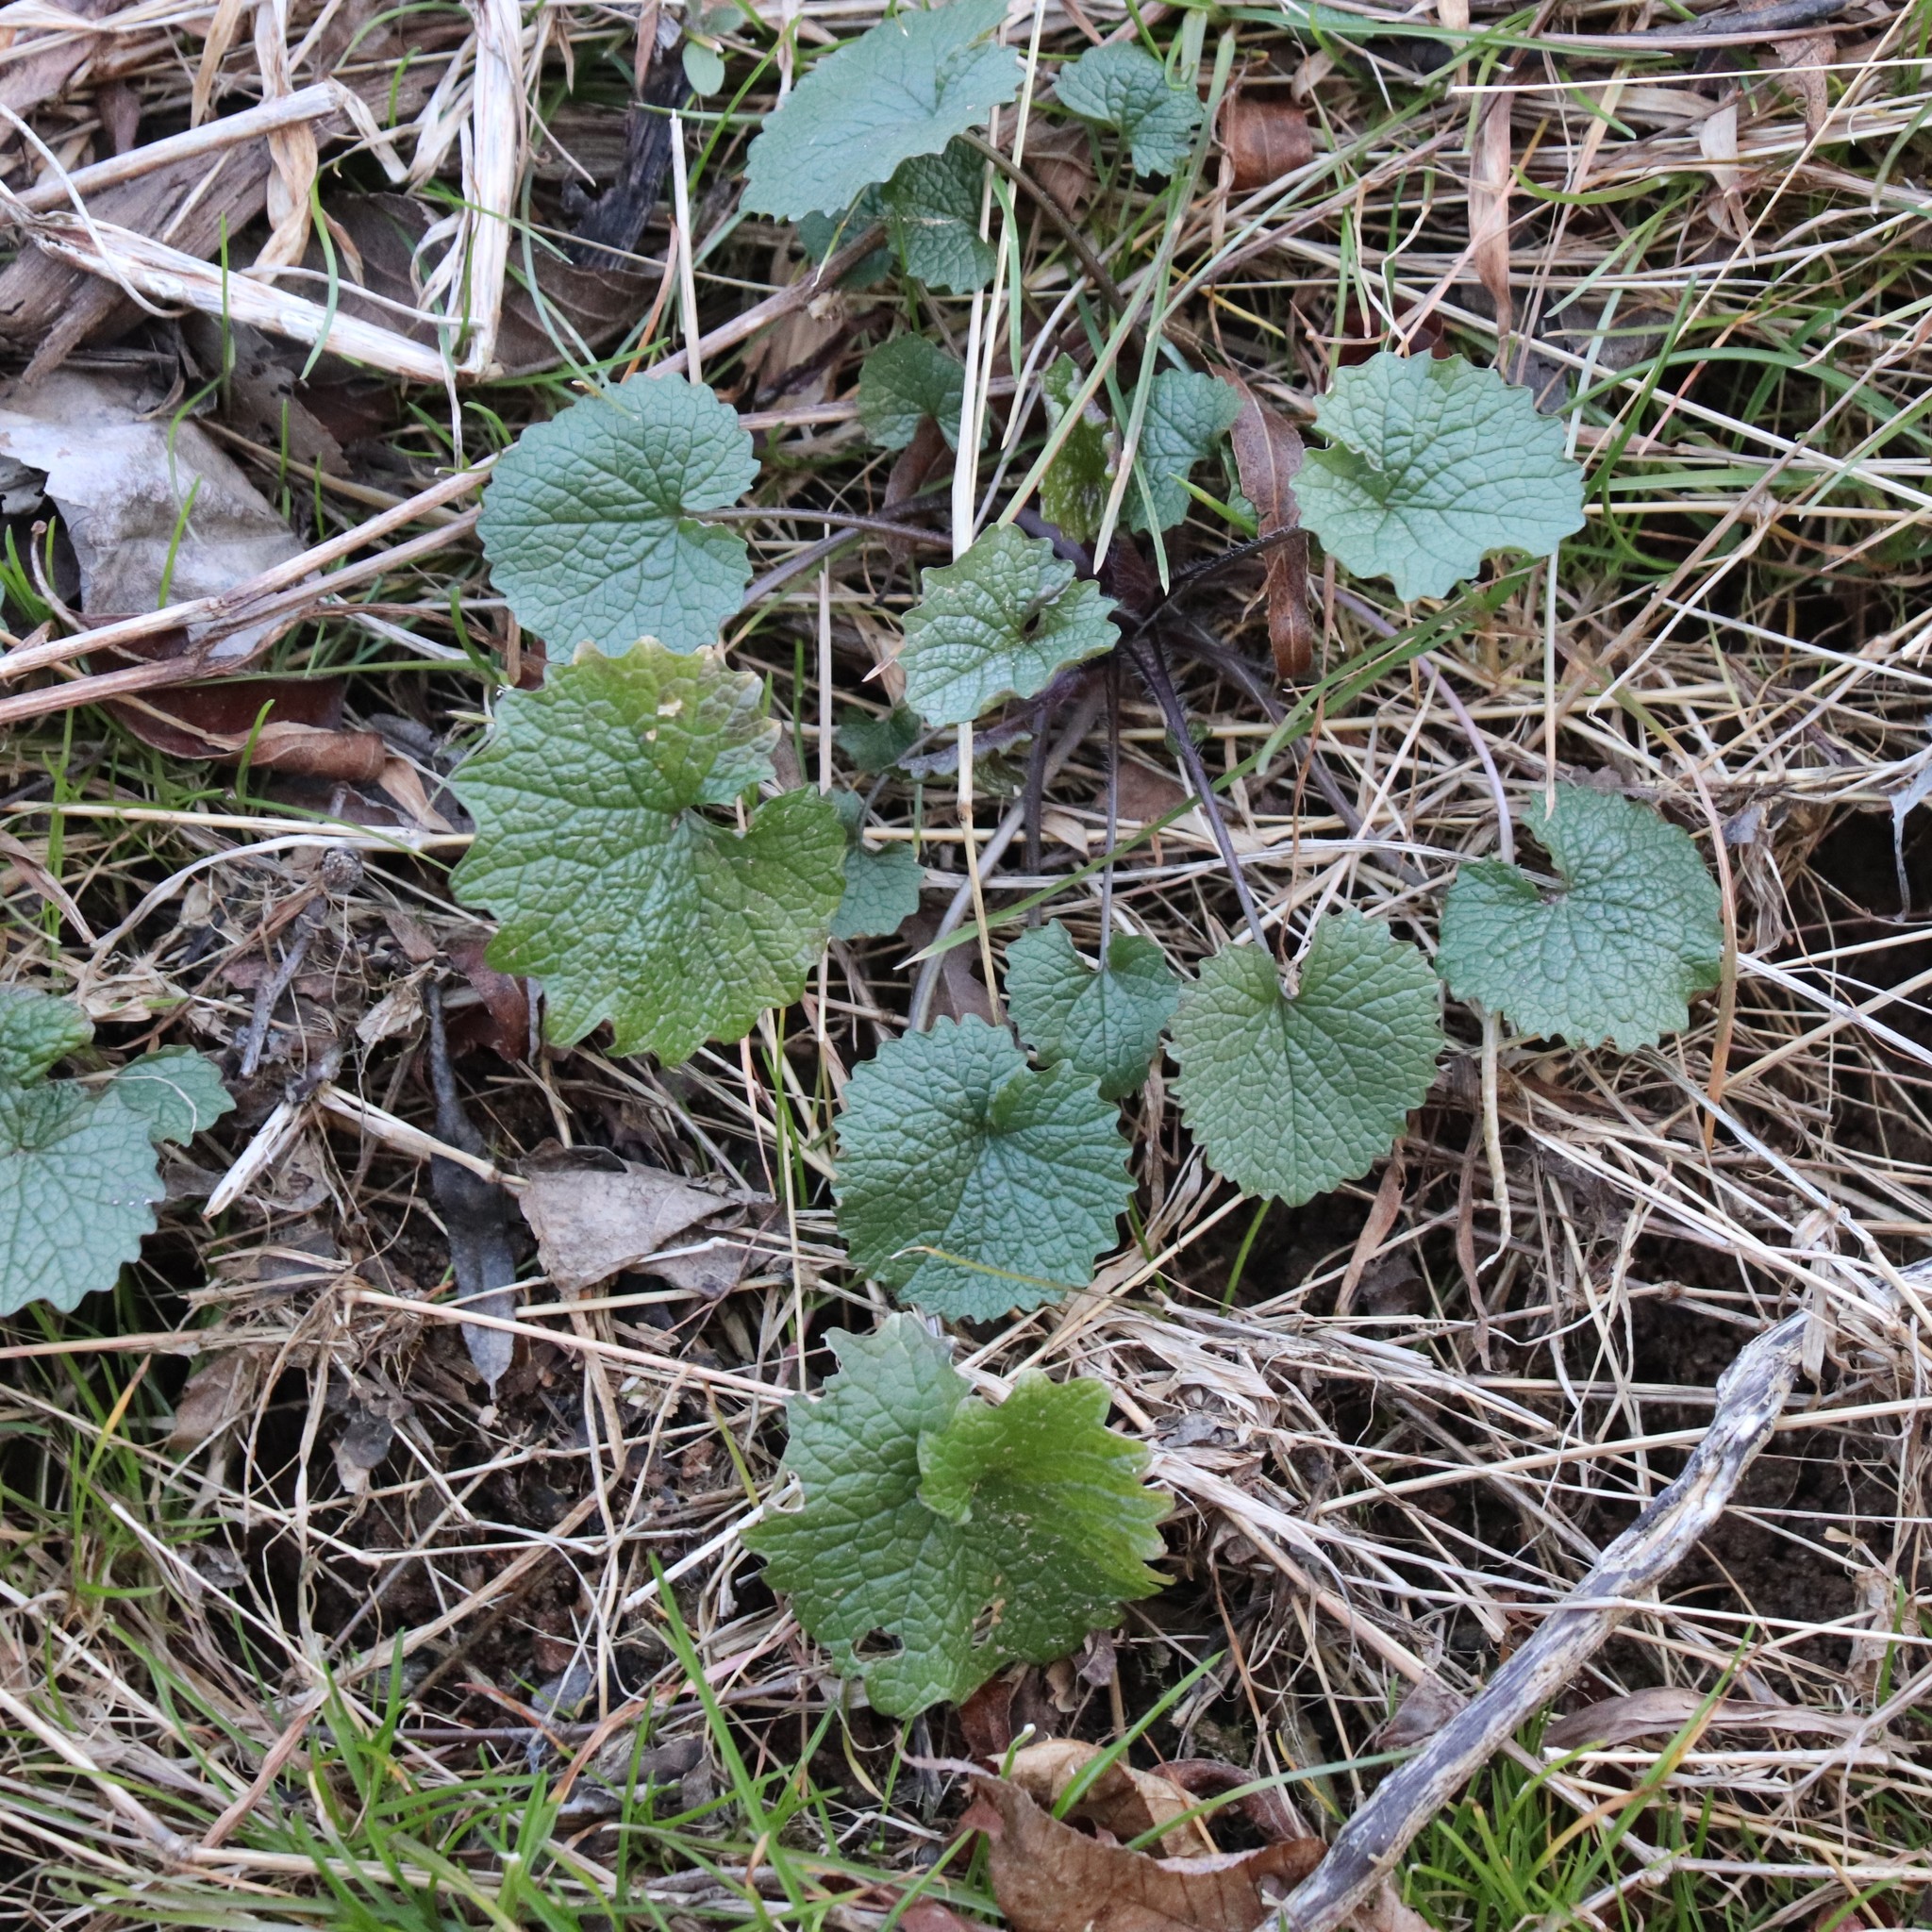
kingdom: Plantae
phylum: Tracheophyta
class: Magnoliopsida
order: Brassicales
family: Brassicaceae
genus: Alliaria
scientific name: Alliaria petiolata
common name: Garlic mustard
